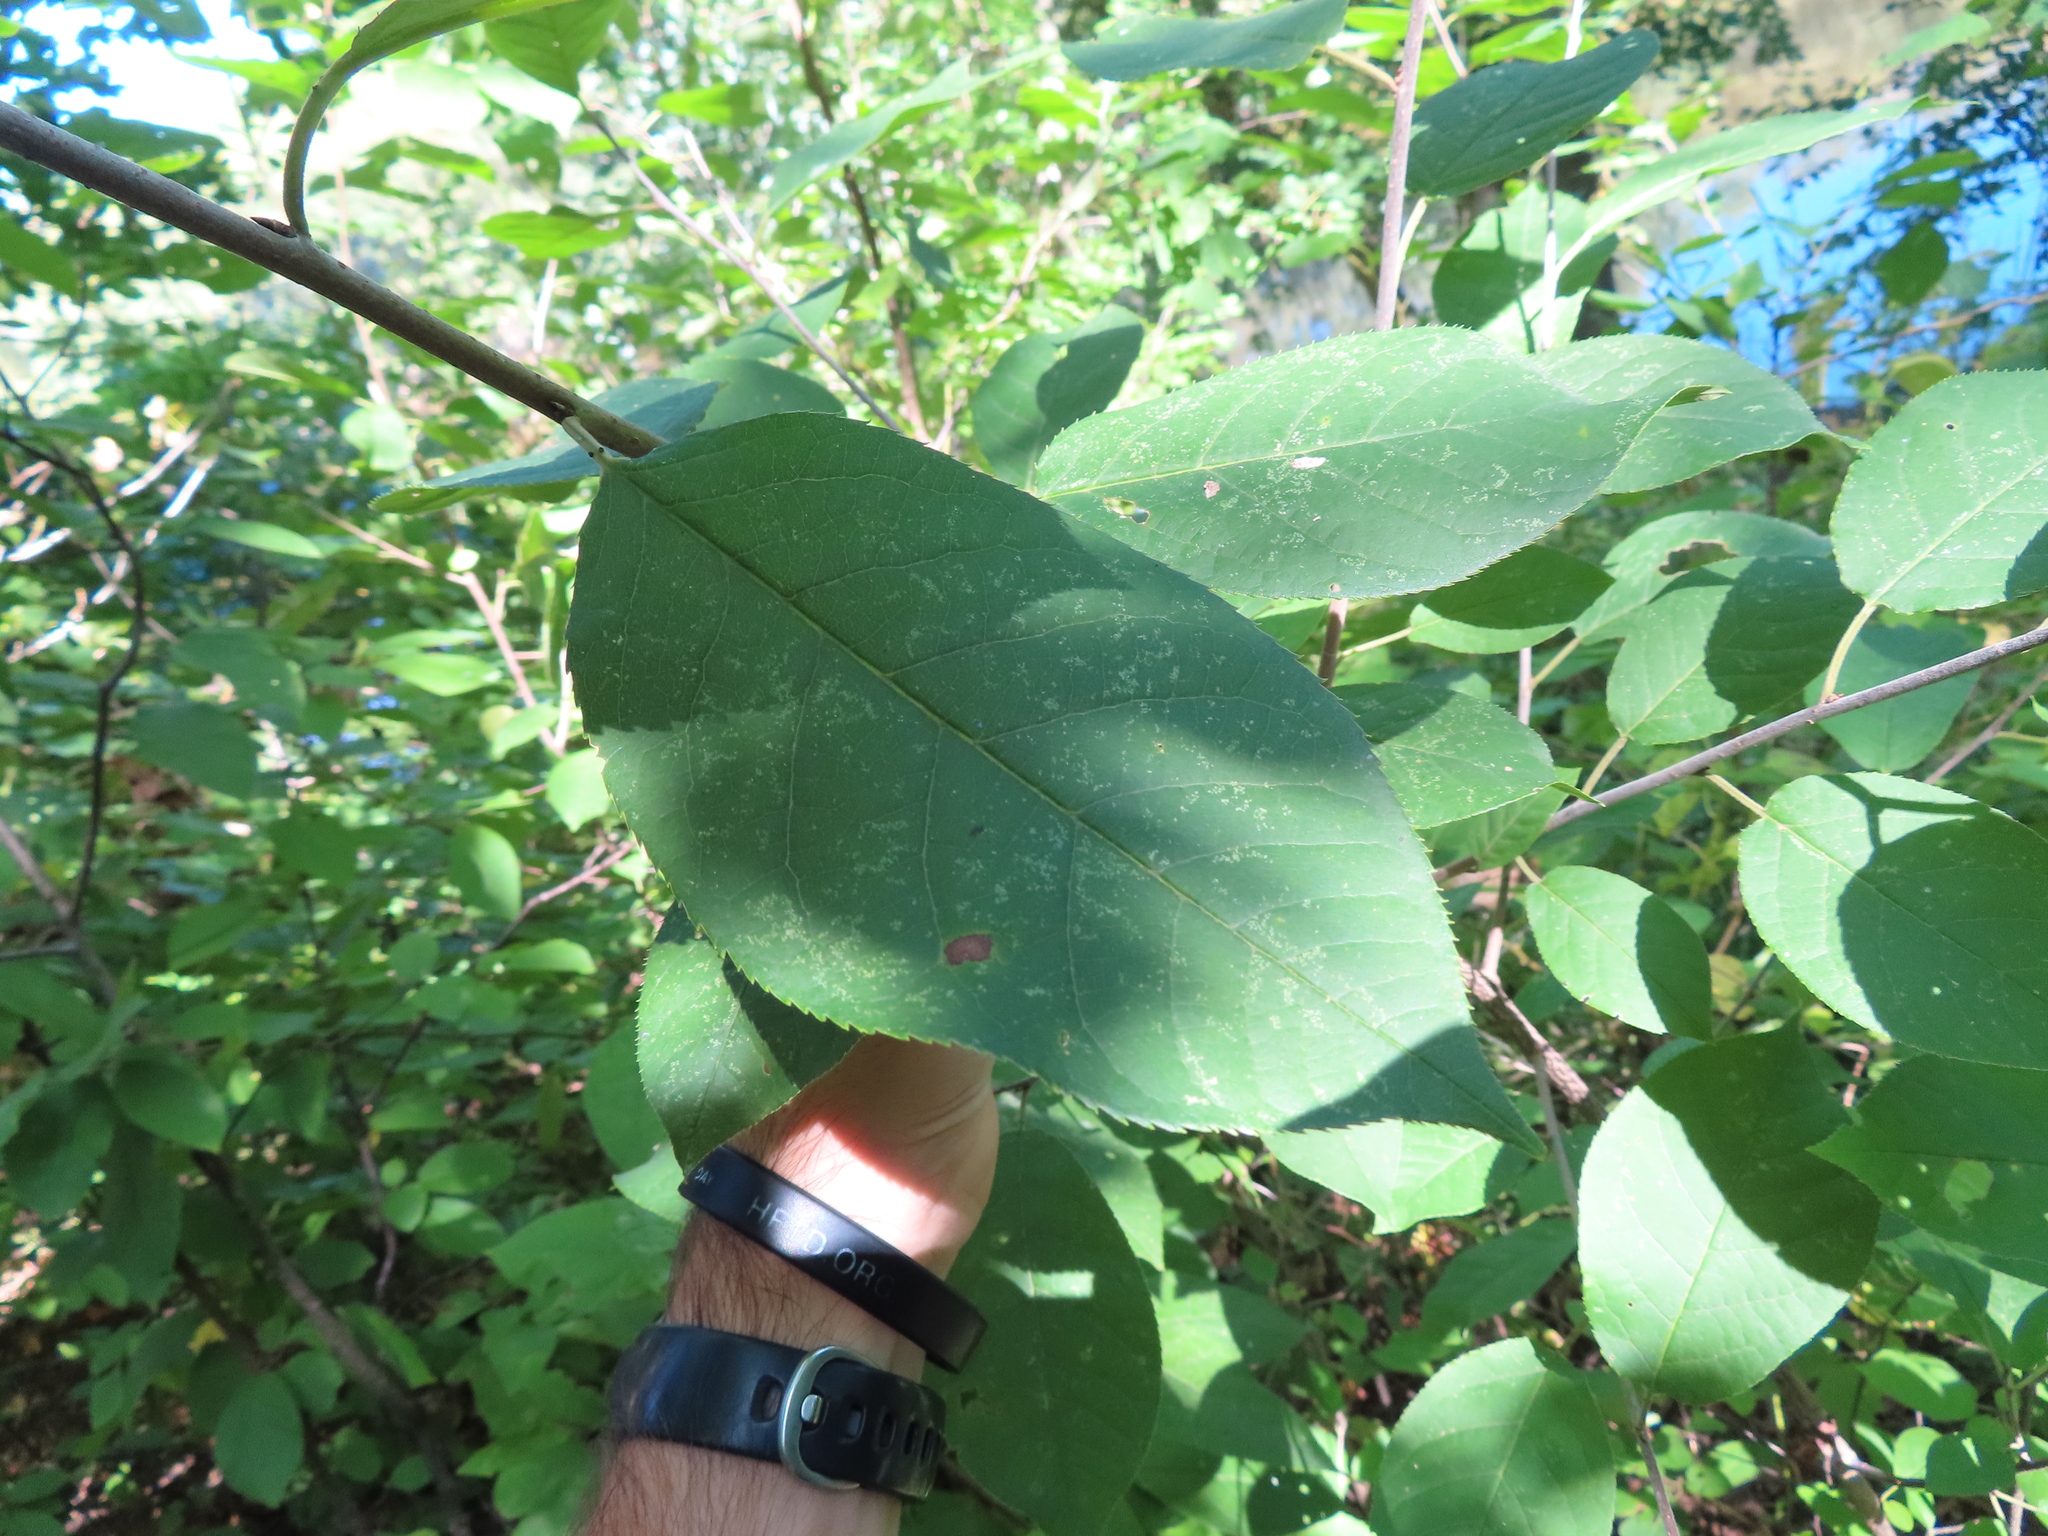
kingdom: Plantae
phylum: Tracheophyta
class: Magnoliopsida
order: Rosales
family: Rosaceae
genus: Prunus
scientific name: Prunus virginiana
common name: Chokecherry
